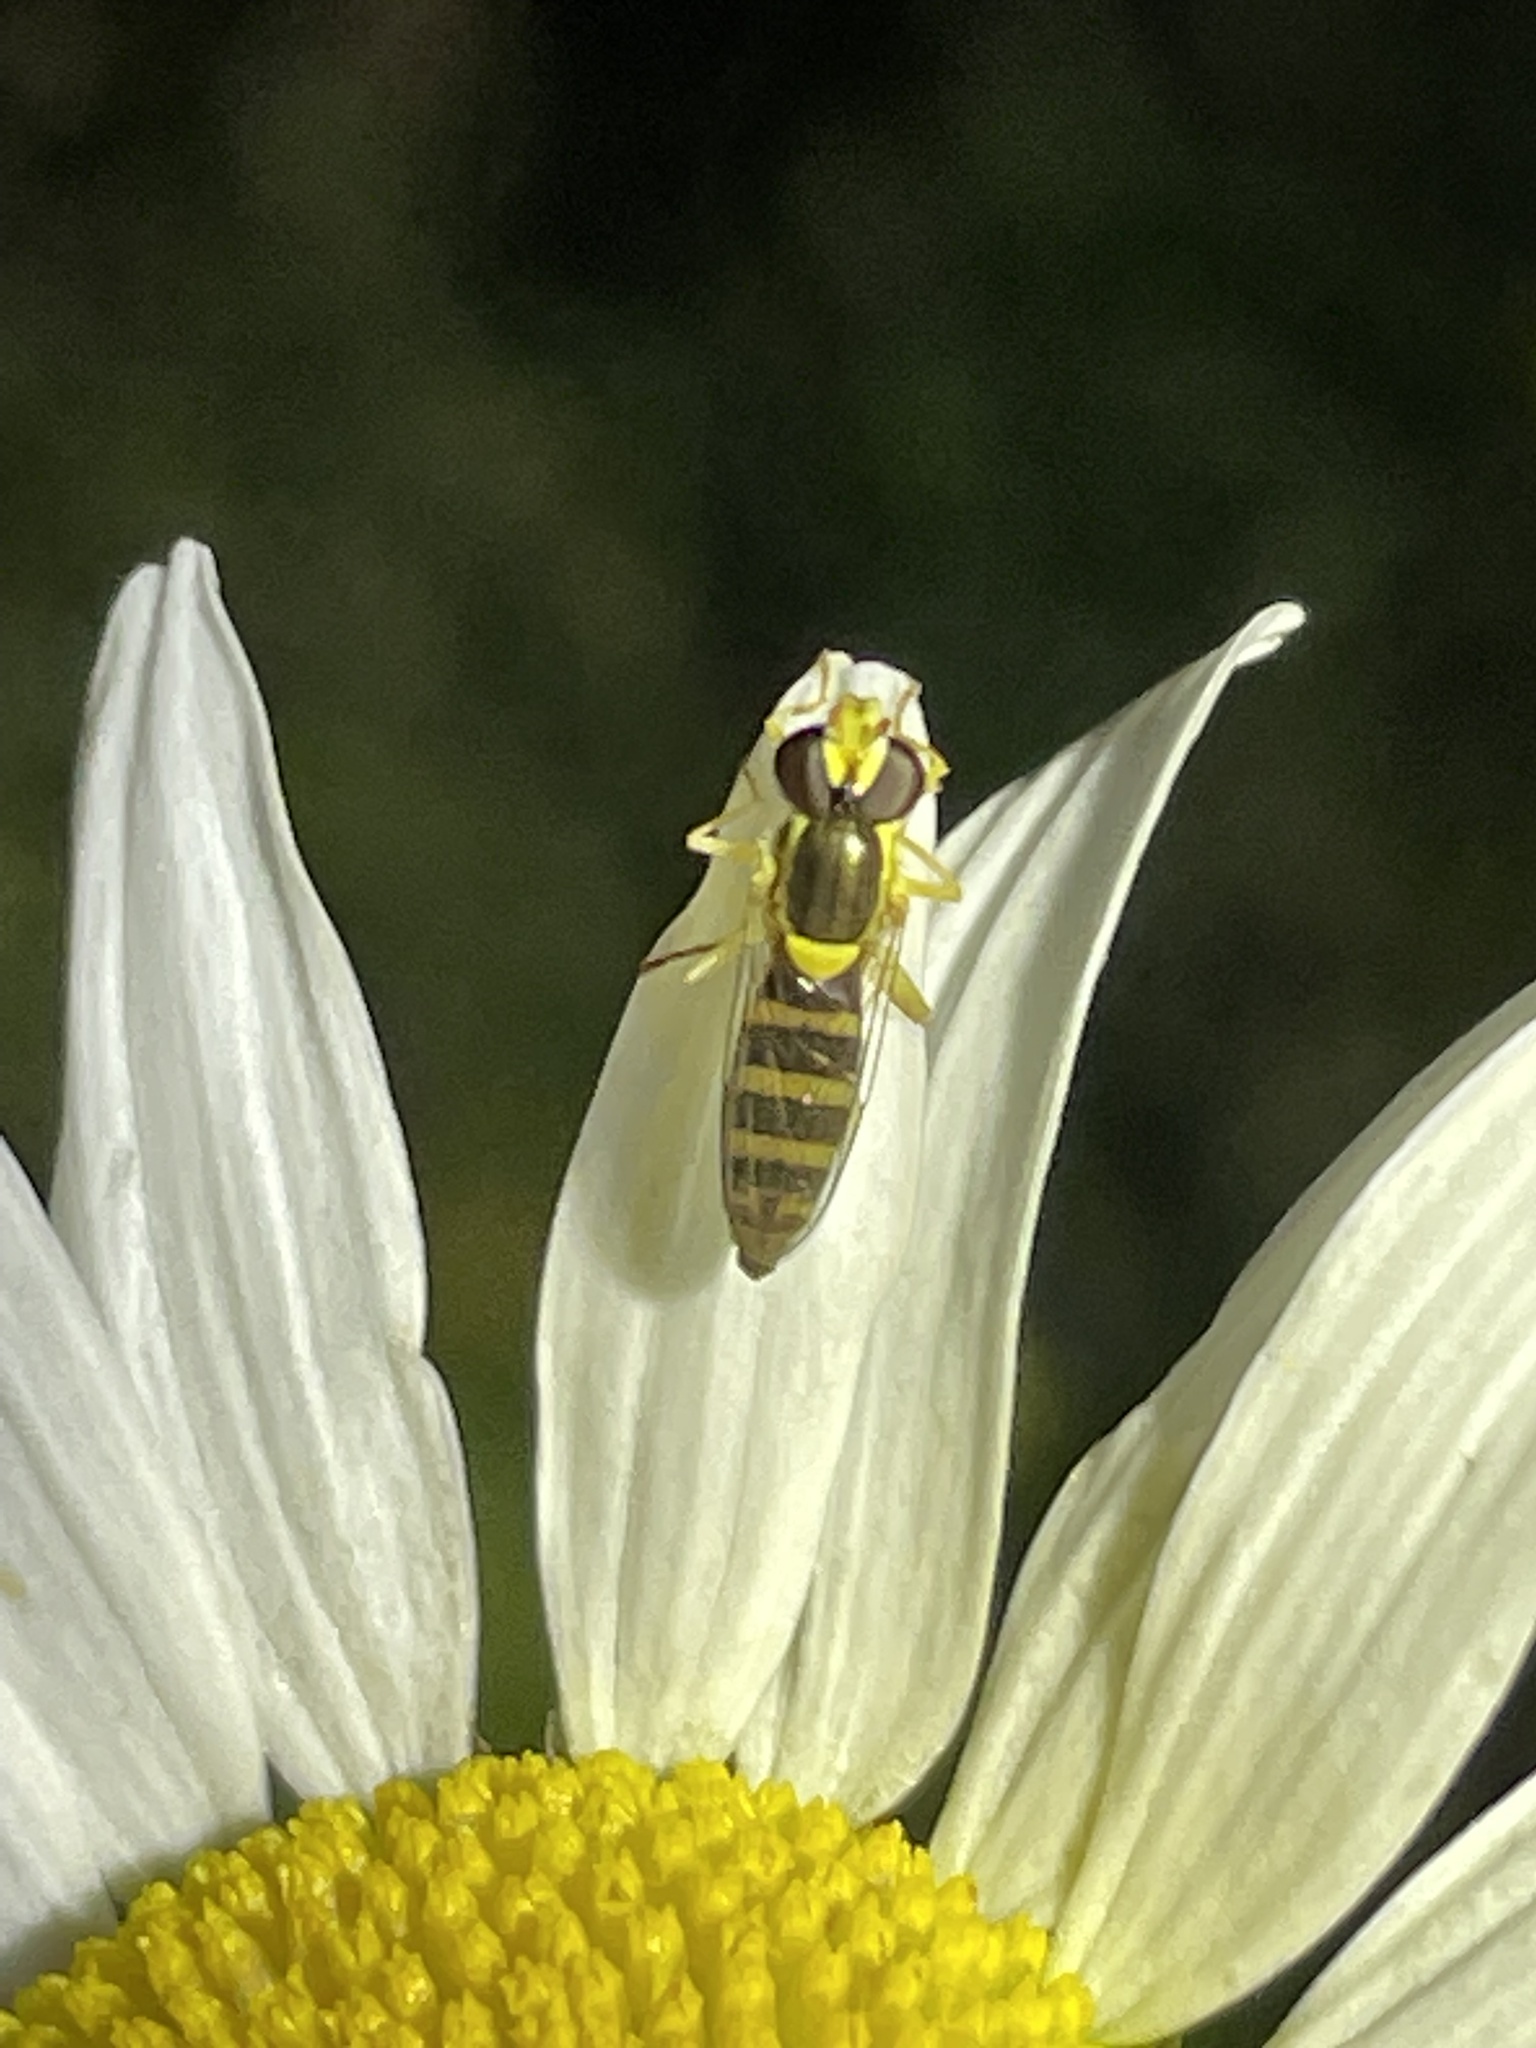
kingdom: Animalia
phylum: Arthropoda
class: Insecta
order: Diptera
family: Syrphidae
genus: Sphaerophoria
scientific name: Sphaerophoria
